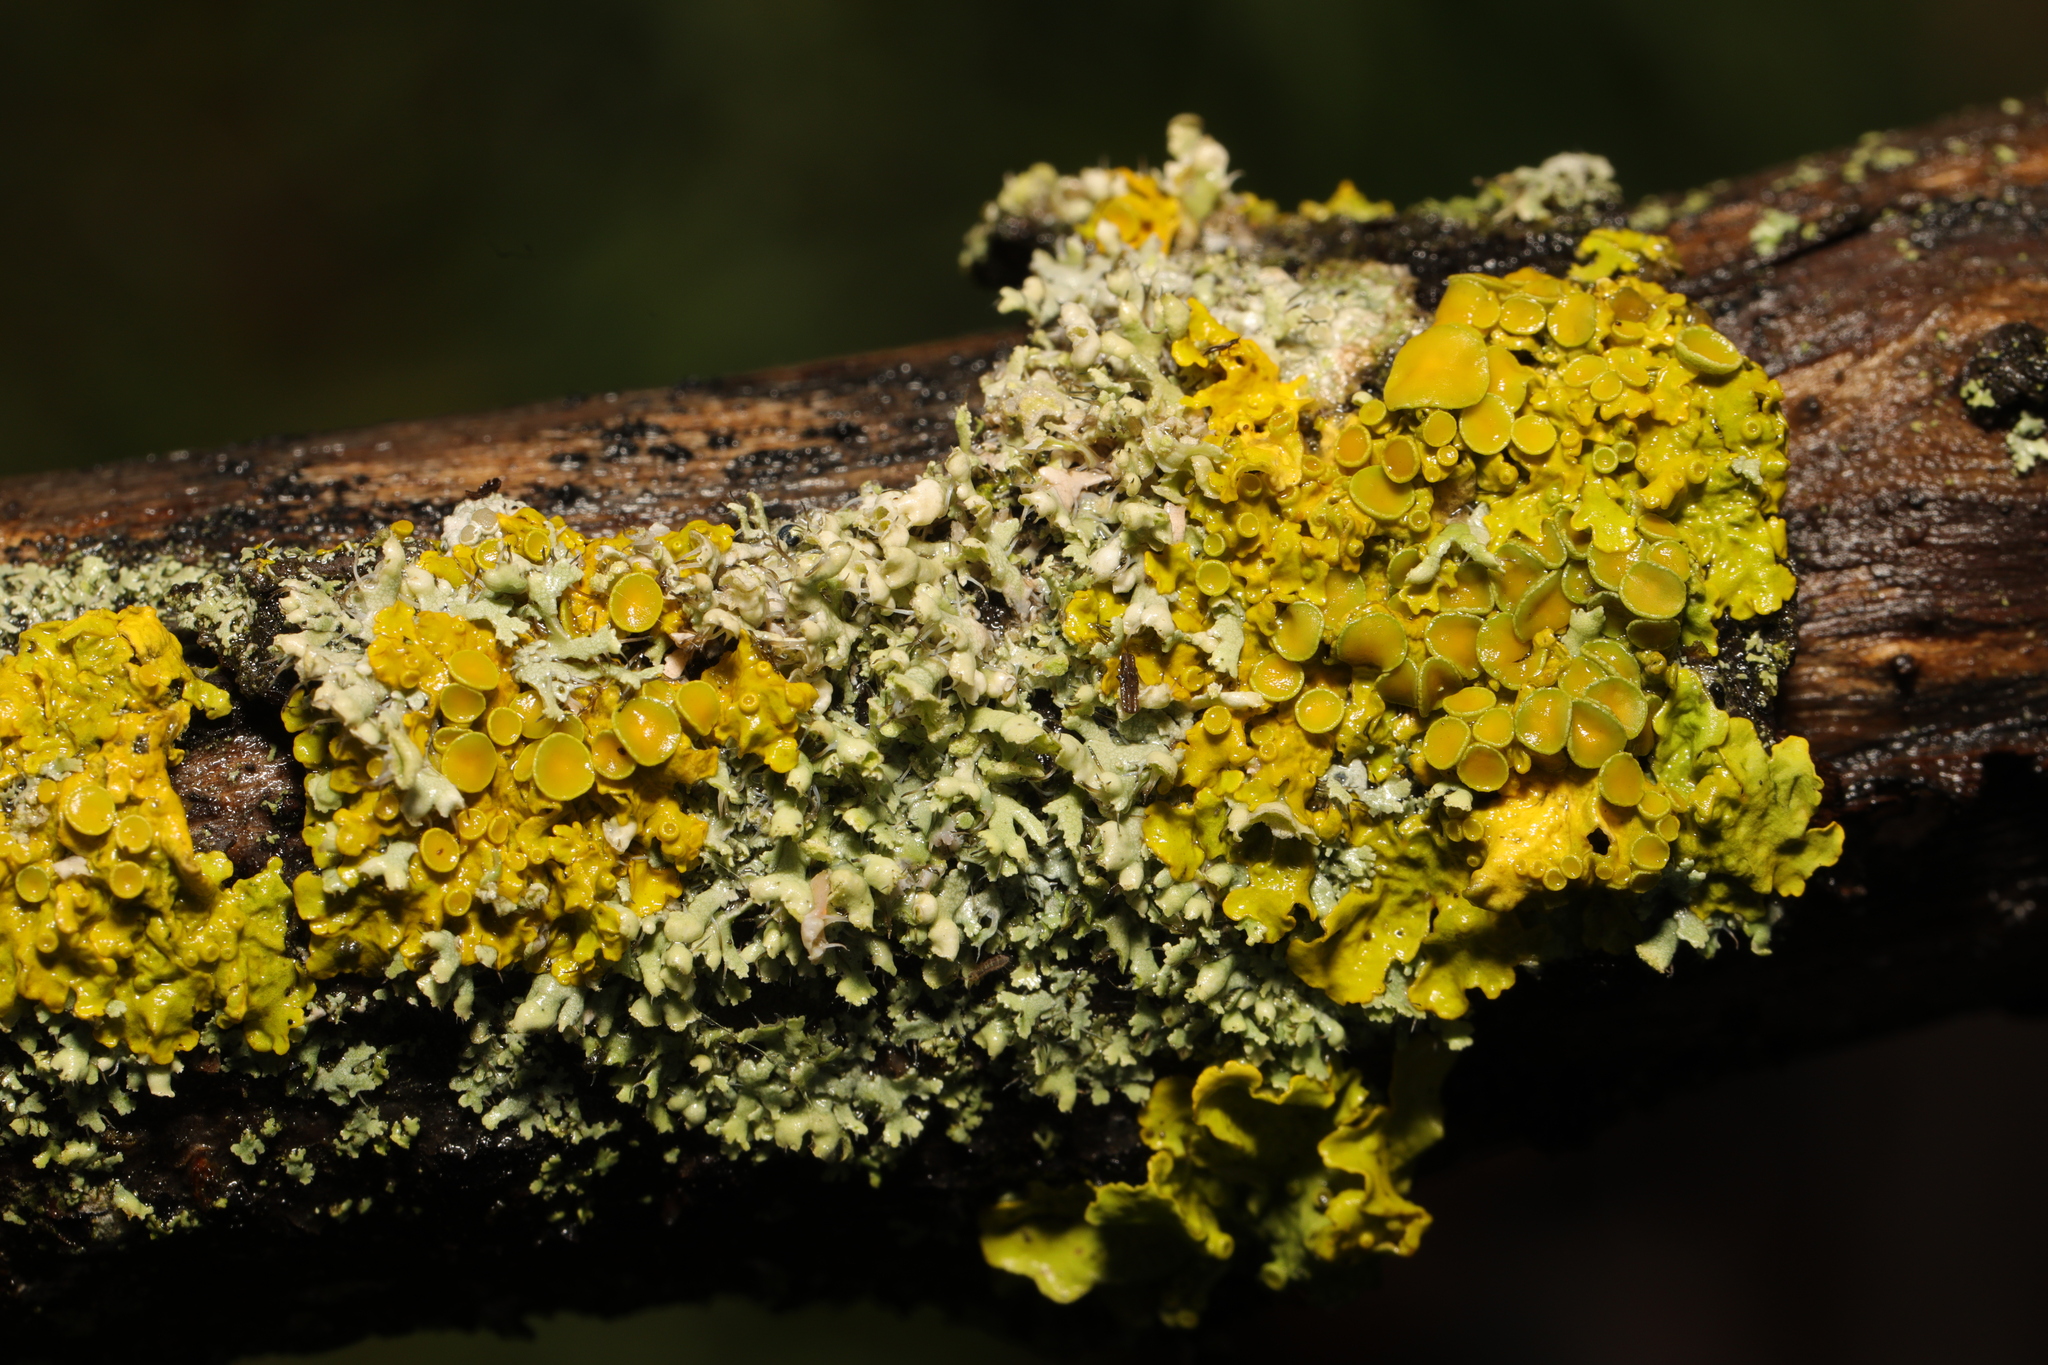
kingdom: Fungi
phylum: Ascomycota
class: Lecanoromycetes
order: Teloschistales
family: Teloschistaceae
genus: Xanthoria
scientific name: Xanthoria parietina
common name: Common orange lichen
